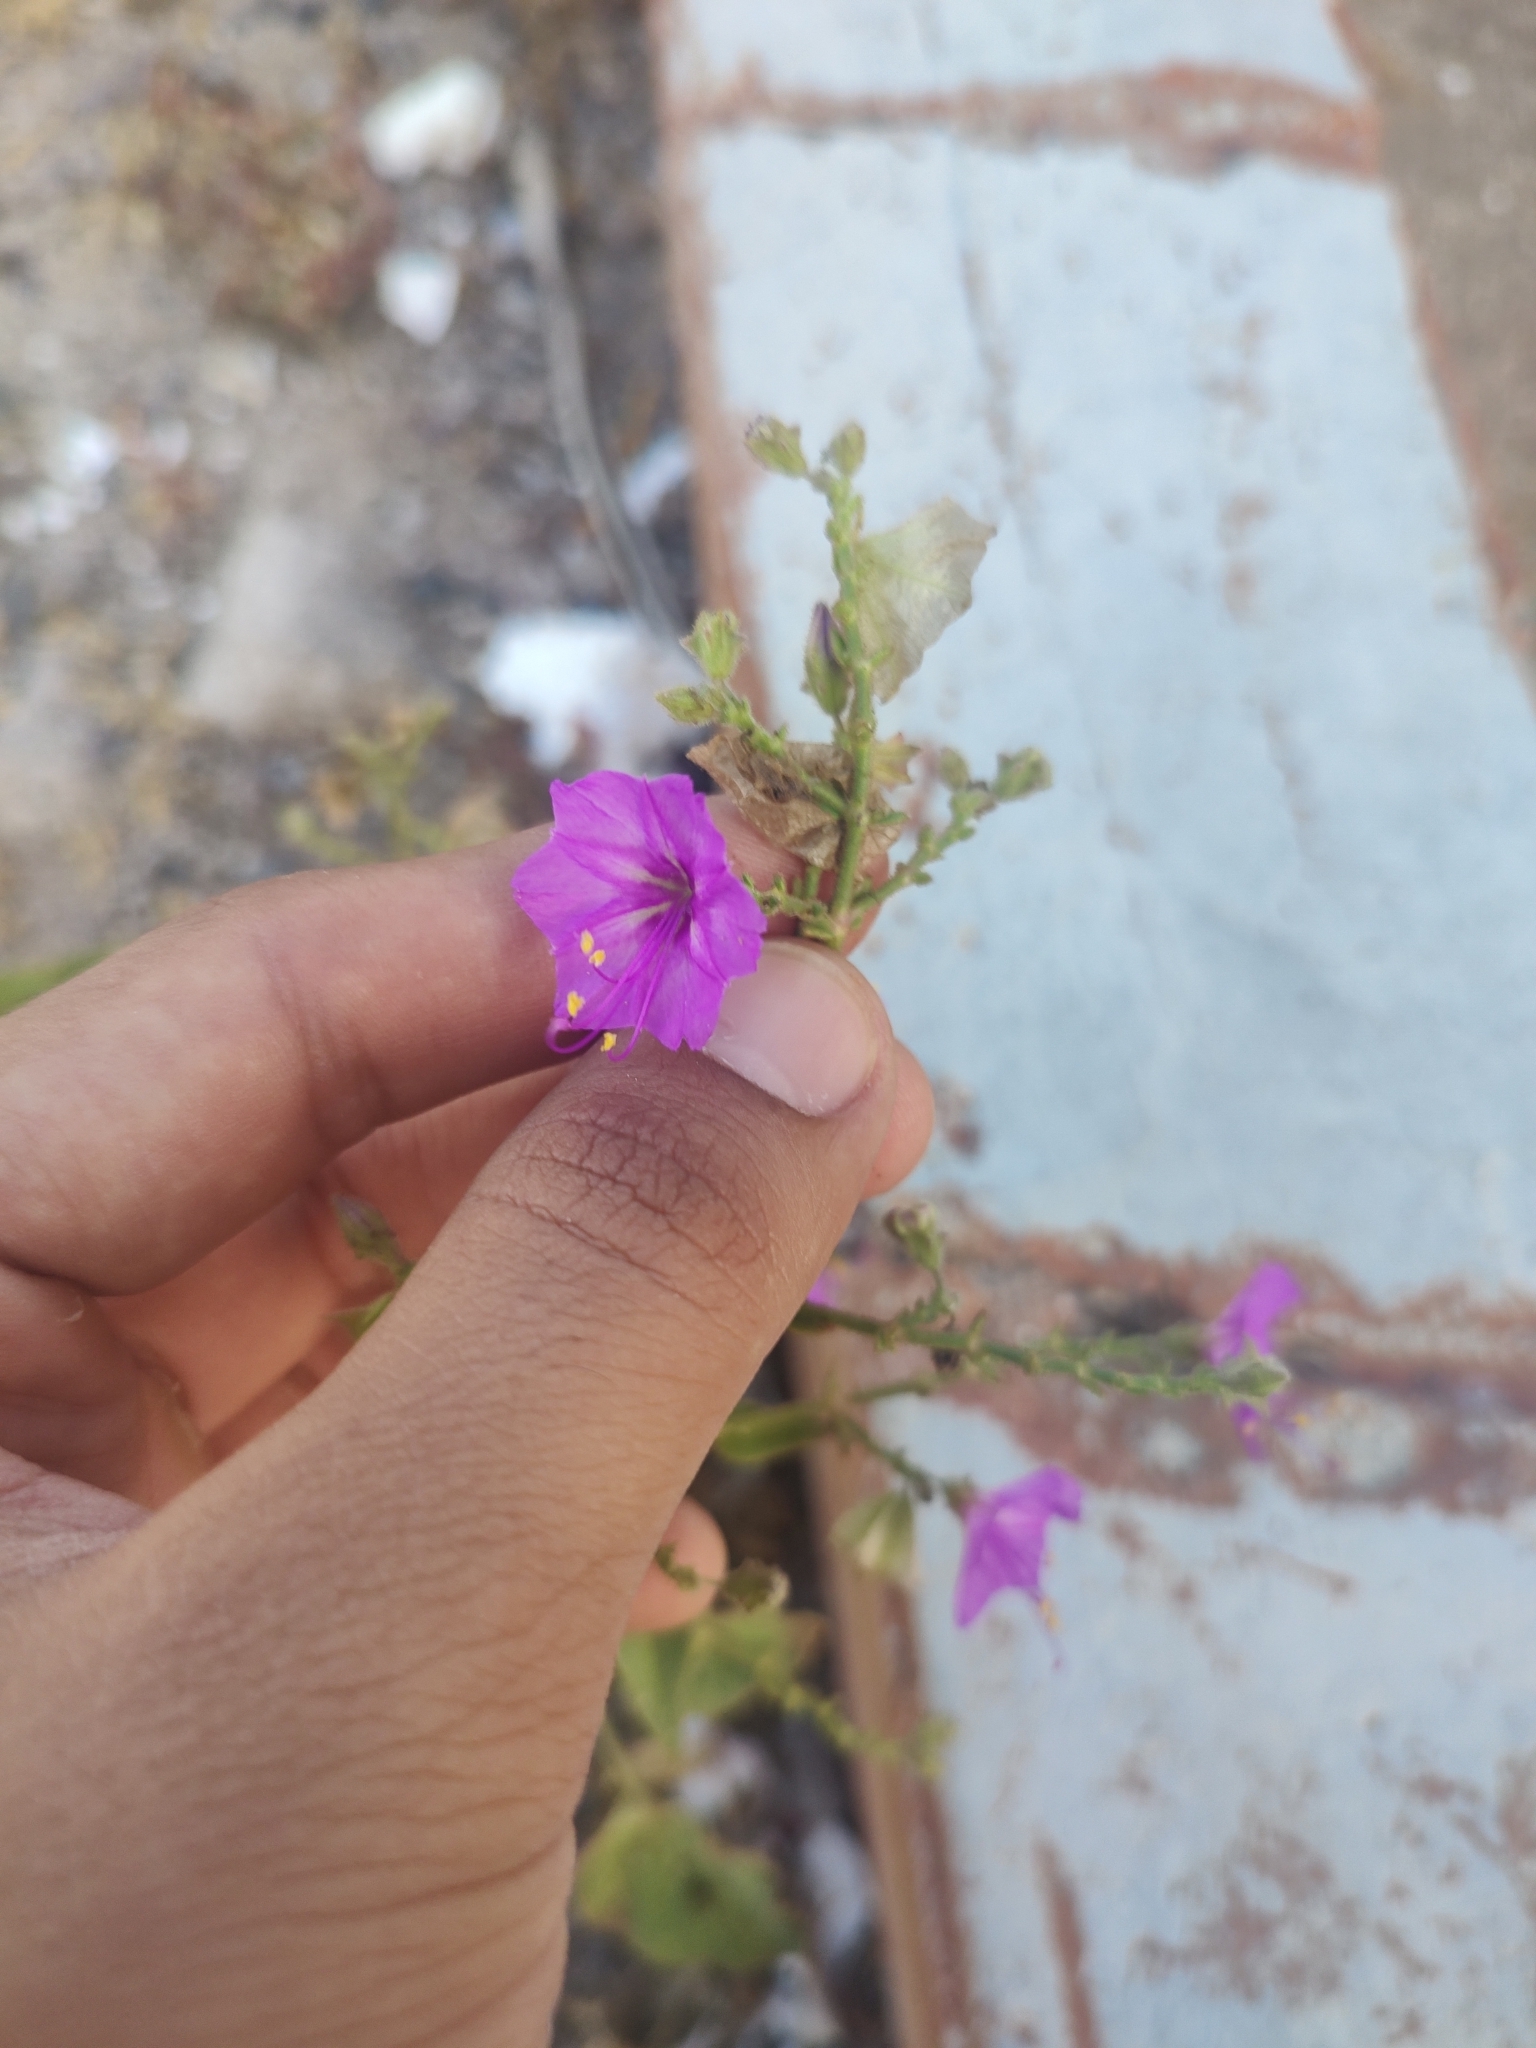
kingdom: Plantae
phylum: Tracheophyta
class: Magnoliopsida
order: Caryophyllales
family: Nyctaginaceae
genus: Mirabilis
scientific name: Mirabilis laevis
